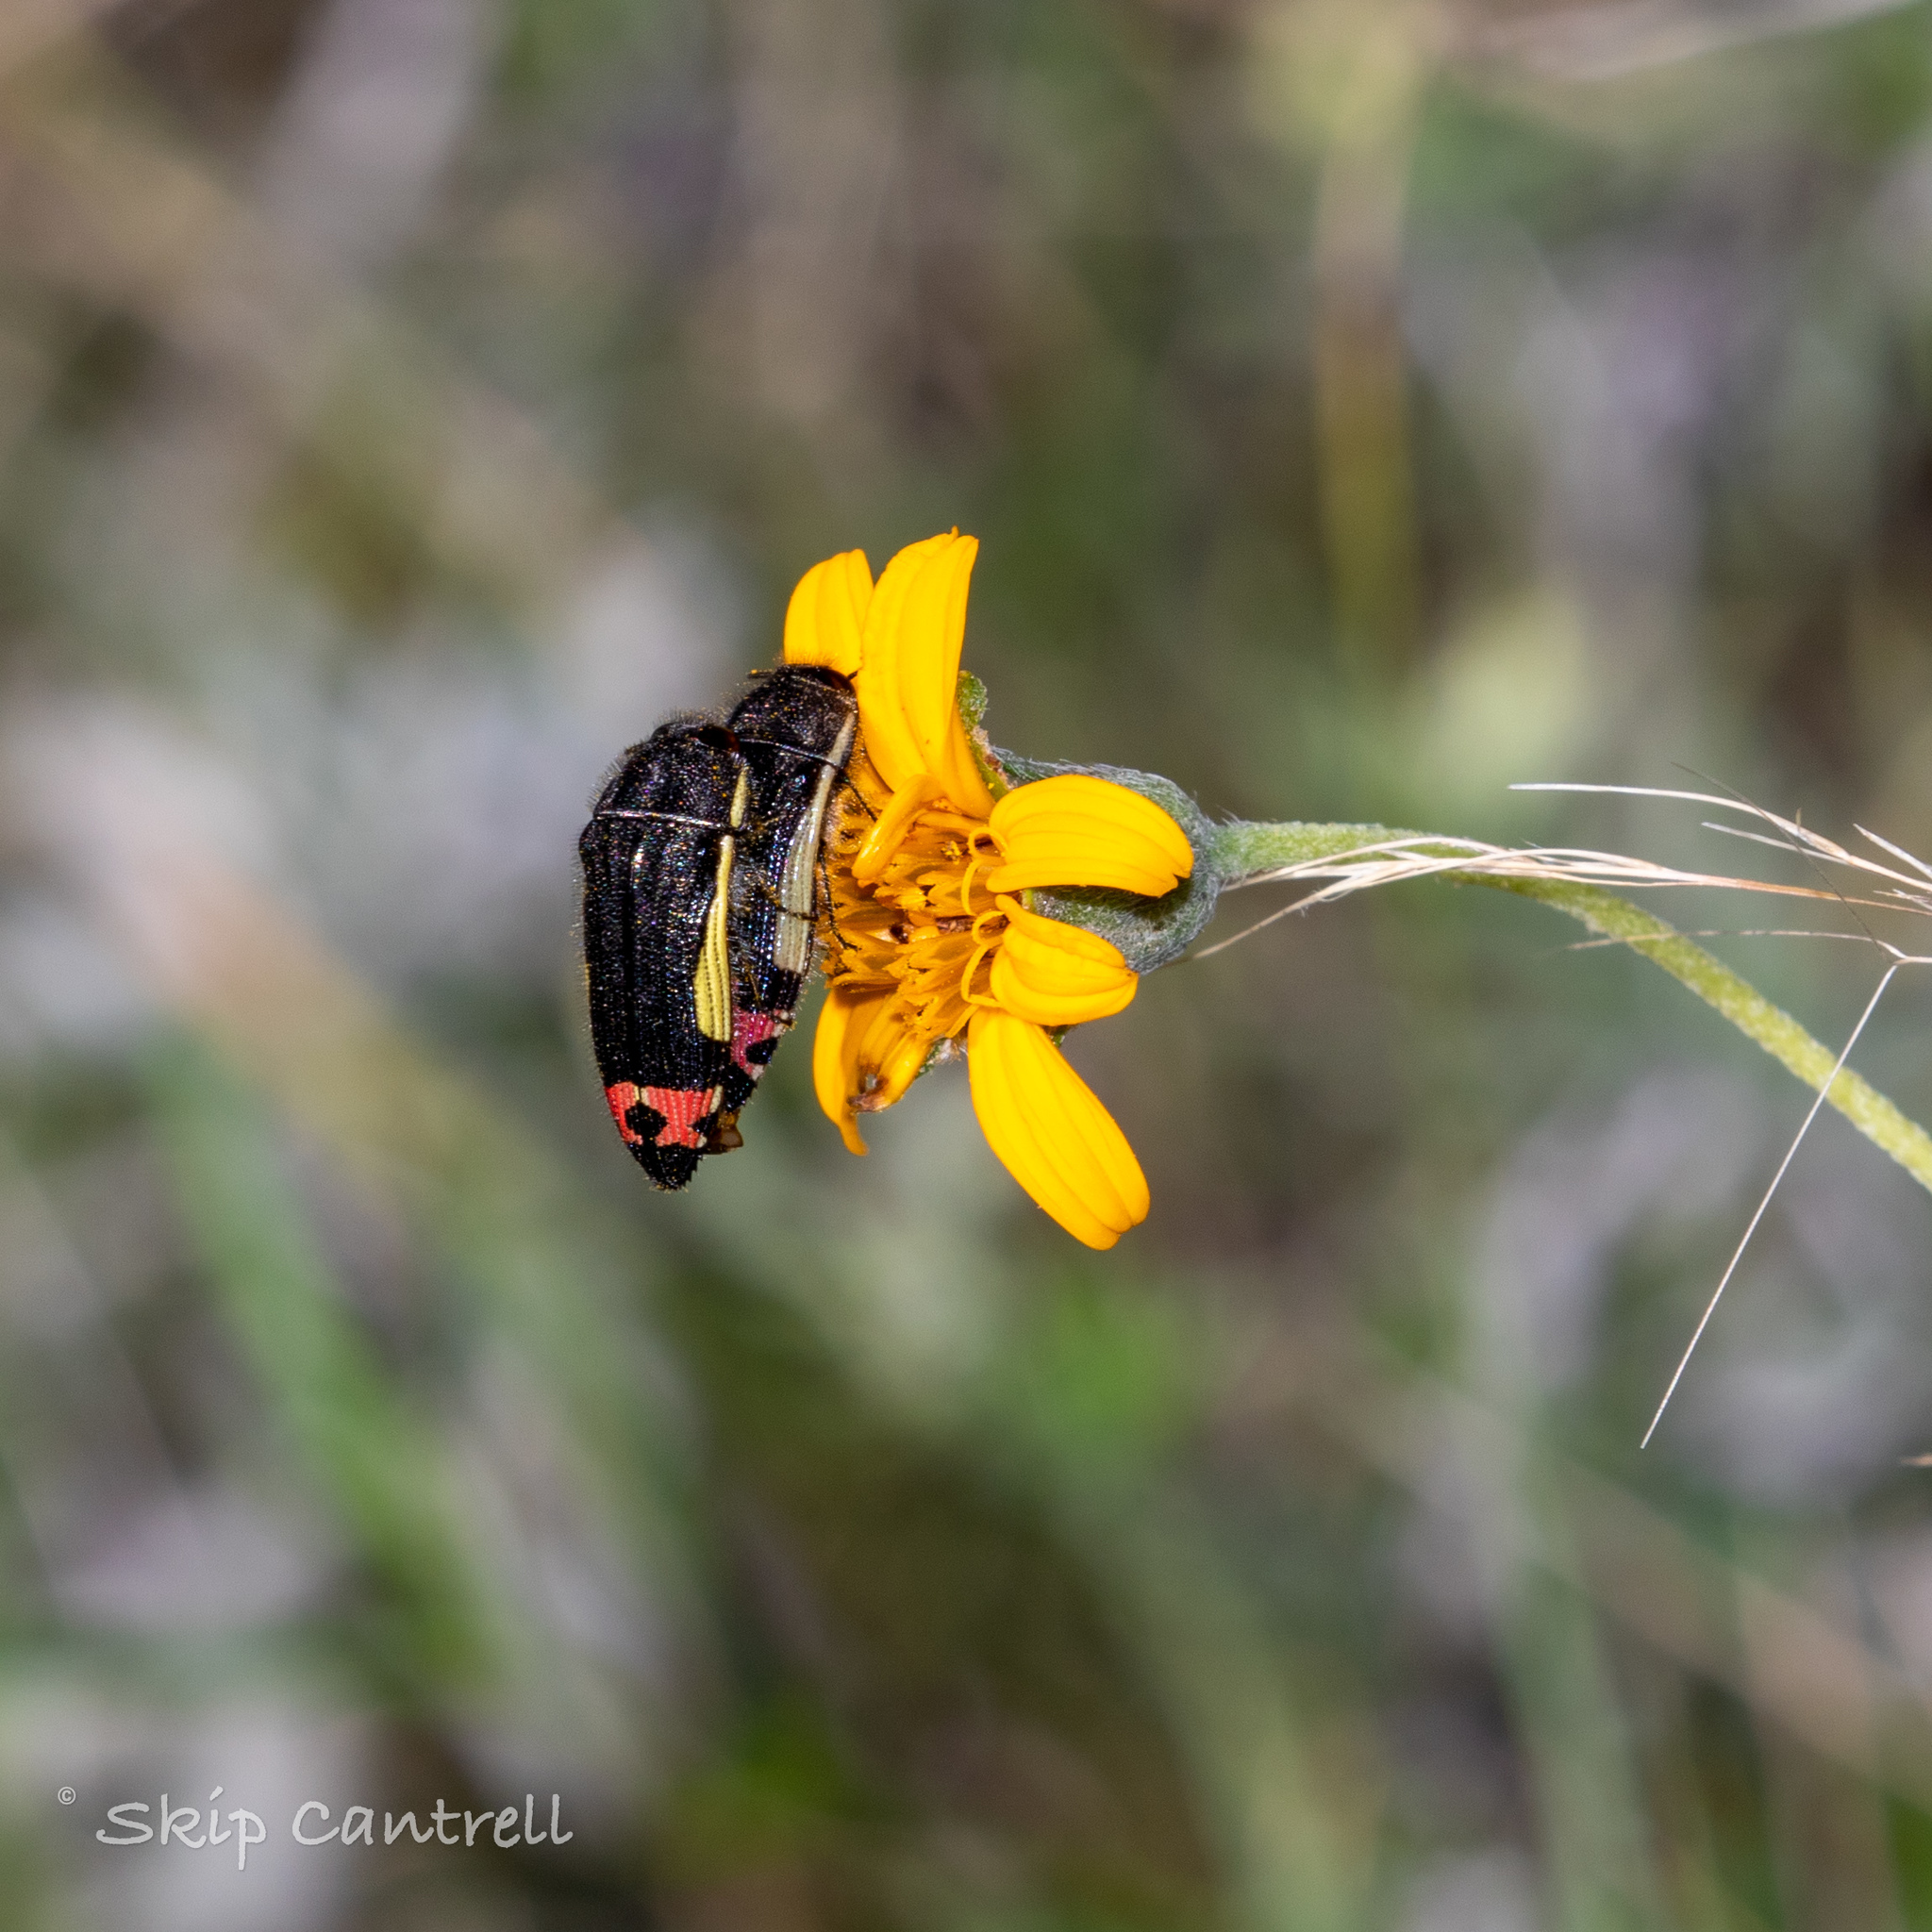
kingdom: Animalia
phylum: Arthropoda
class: Insecta
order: Coleoptera
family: Buprestidae
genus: Acmaeodera
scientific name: Acmaeodera flavomarginata
